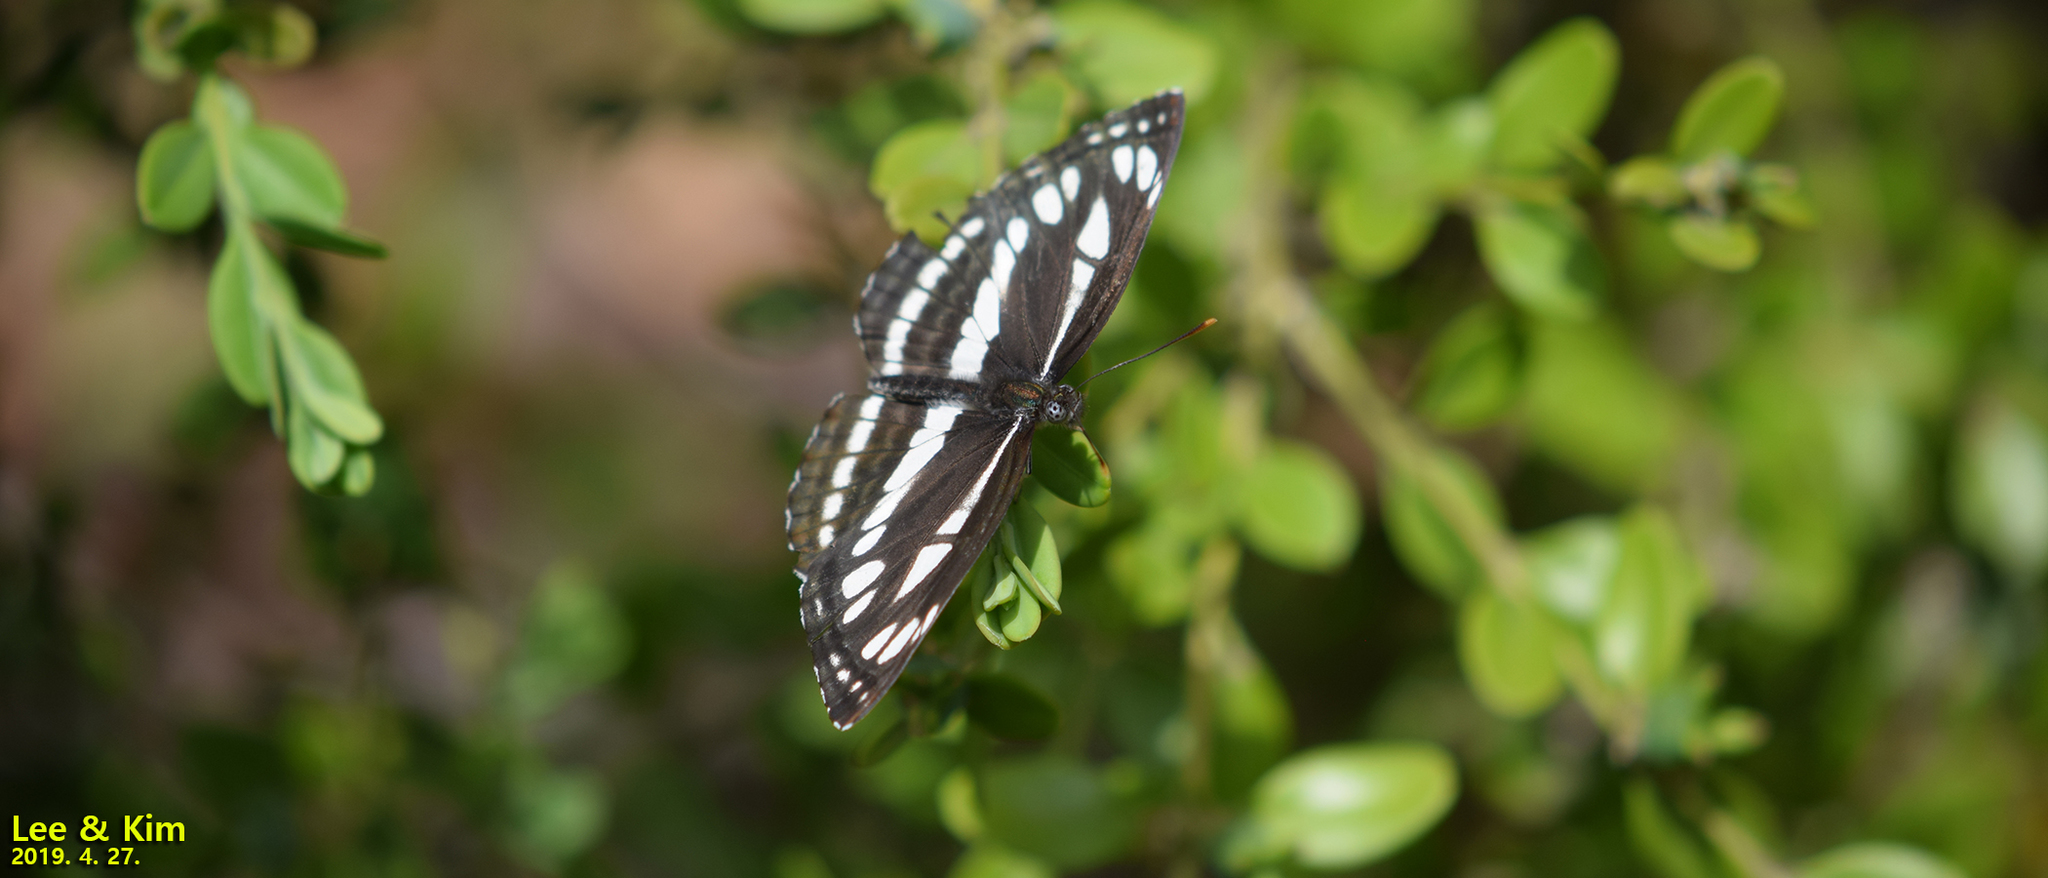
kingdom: Animalia
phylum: Arthropoda
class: Insecta
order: Lepidoptera
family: Nymphalidae
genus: Neptis
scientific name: Neptis sappho
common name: Common glider
